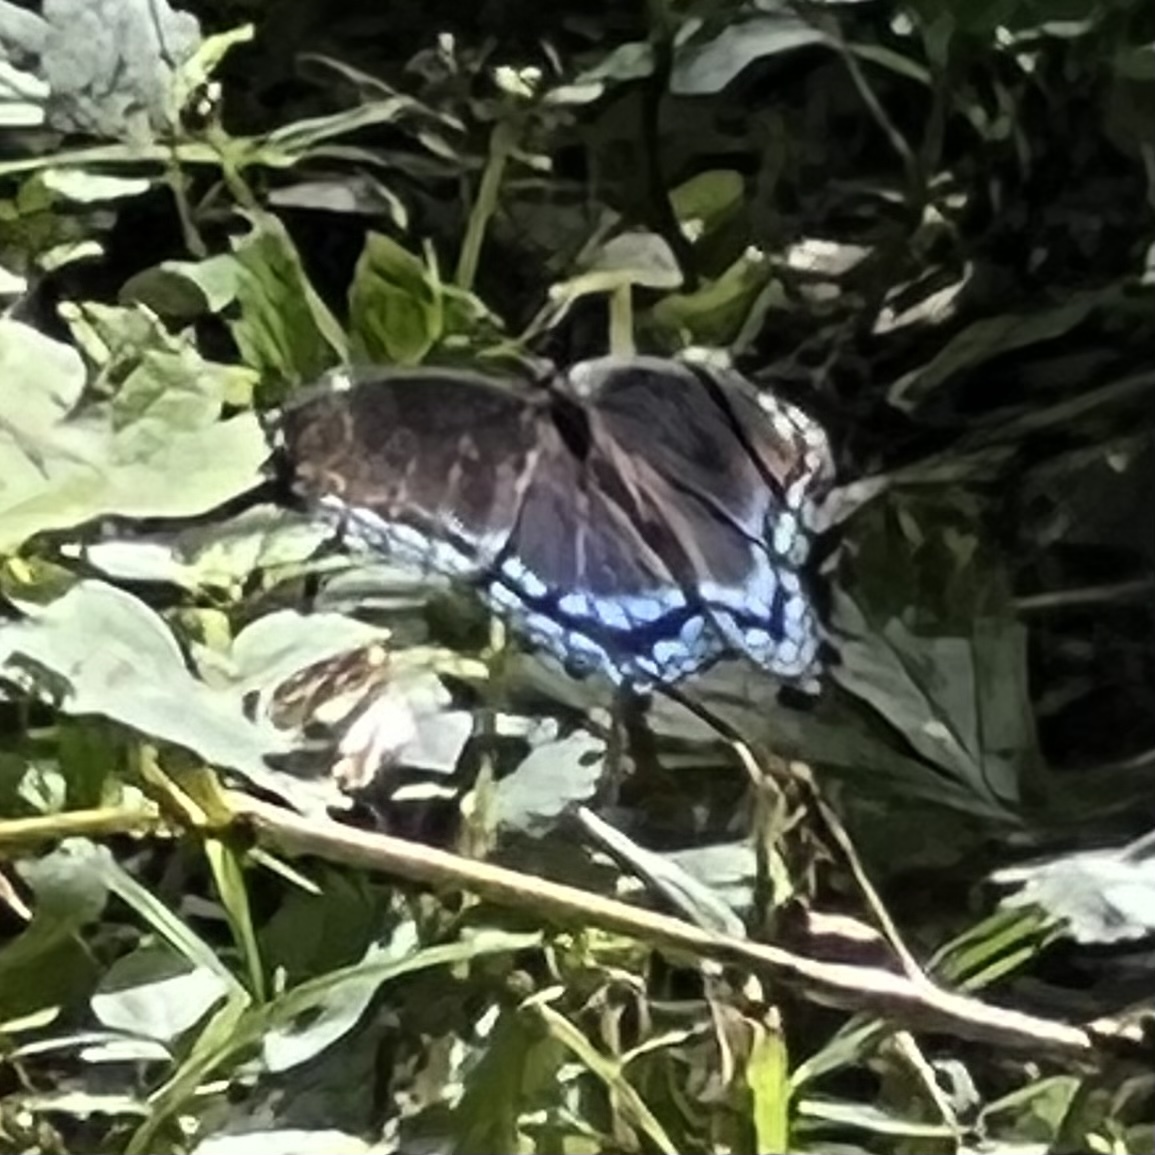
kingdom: Animalia
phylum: Arthropoda
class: Insecta
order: Lepidoptera
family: Nymphalidae
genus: Limenitis
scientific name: Limenitis arthemis
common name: Red-spotted admiral
